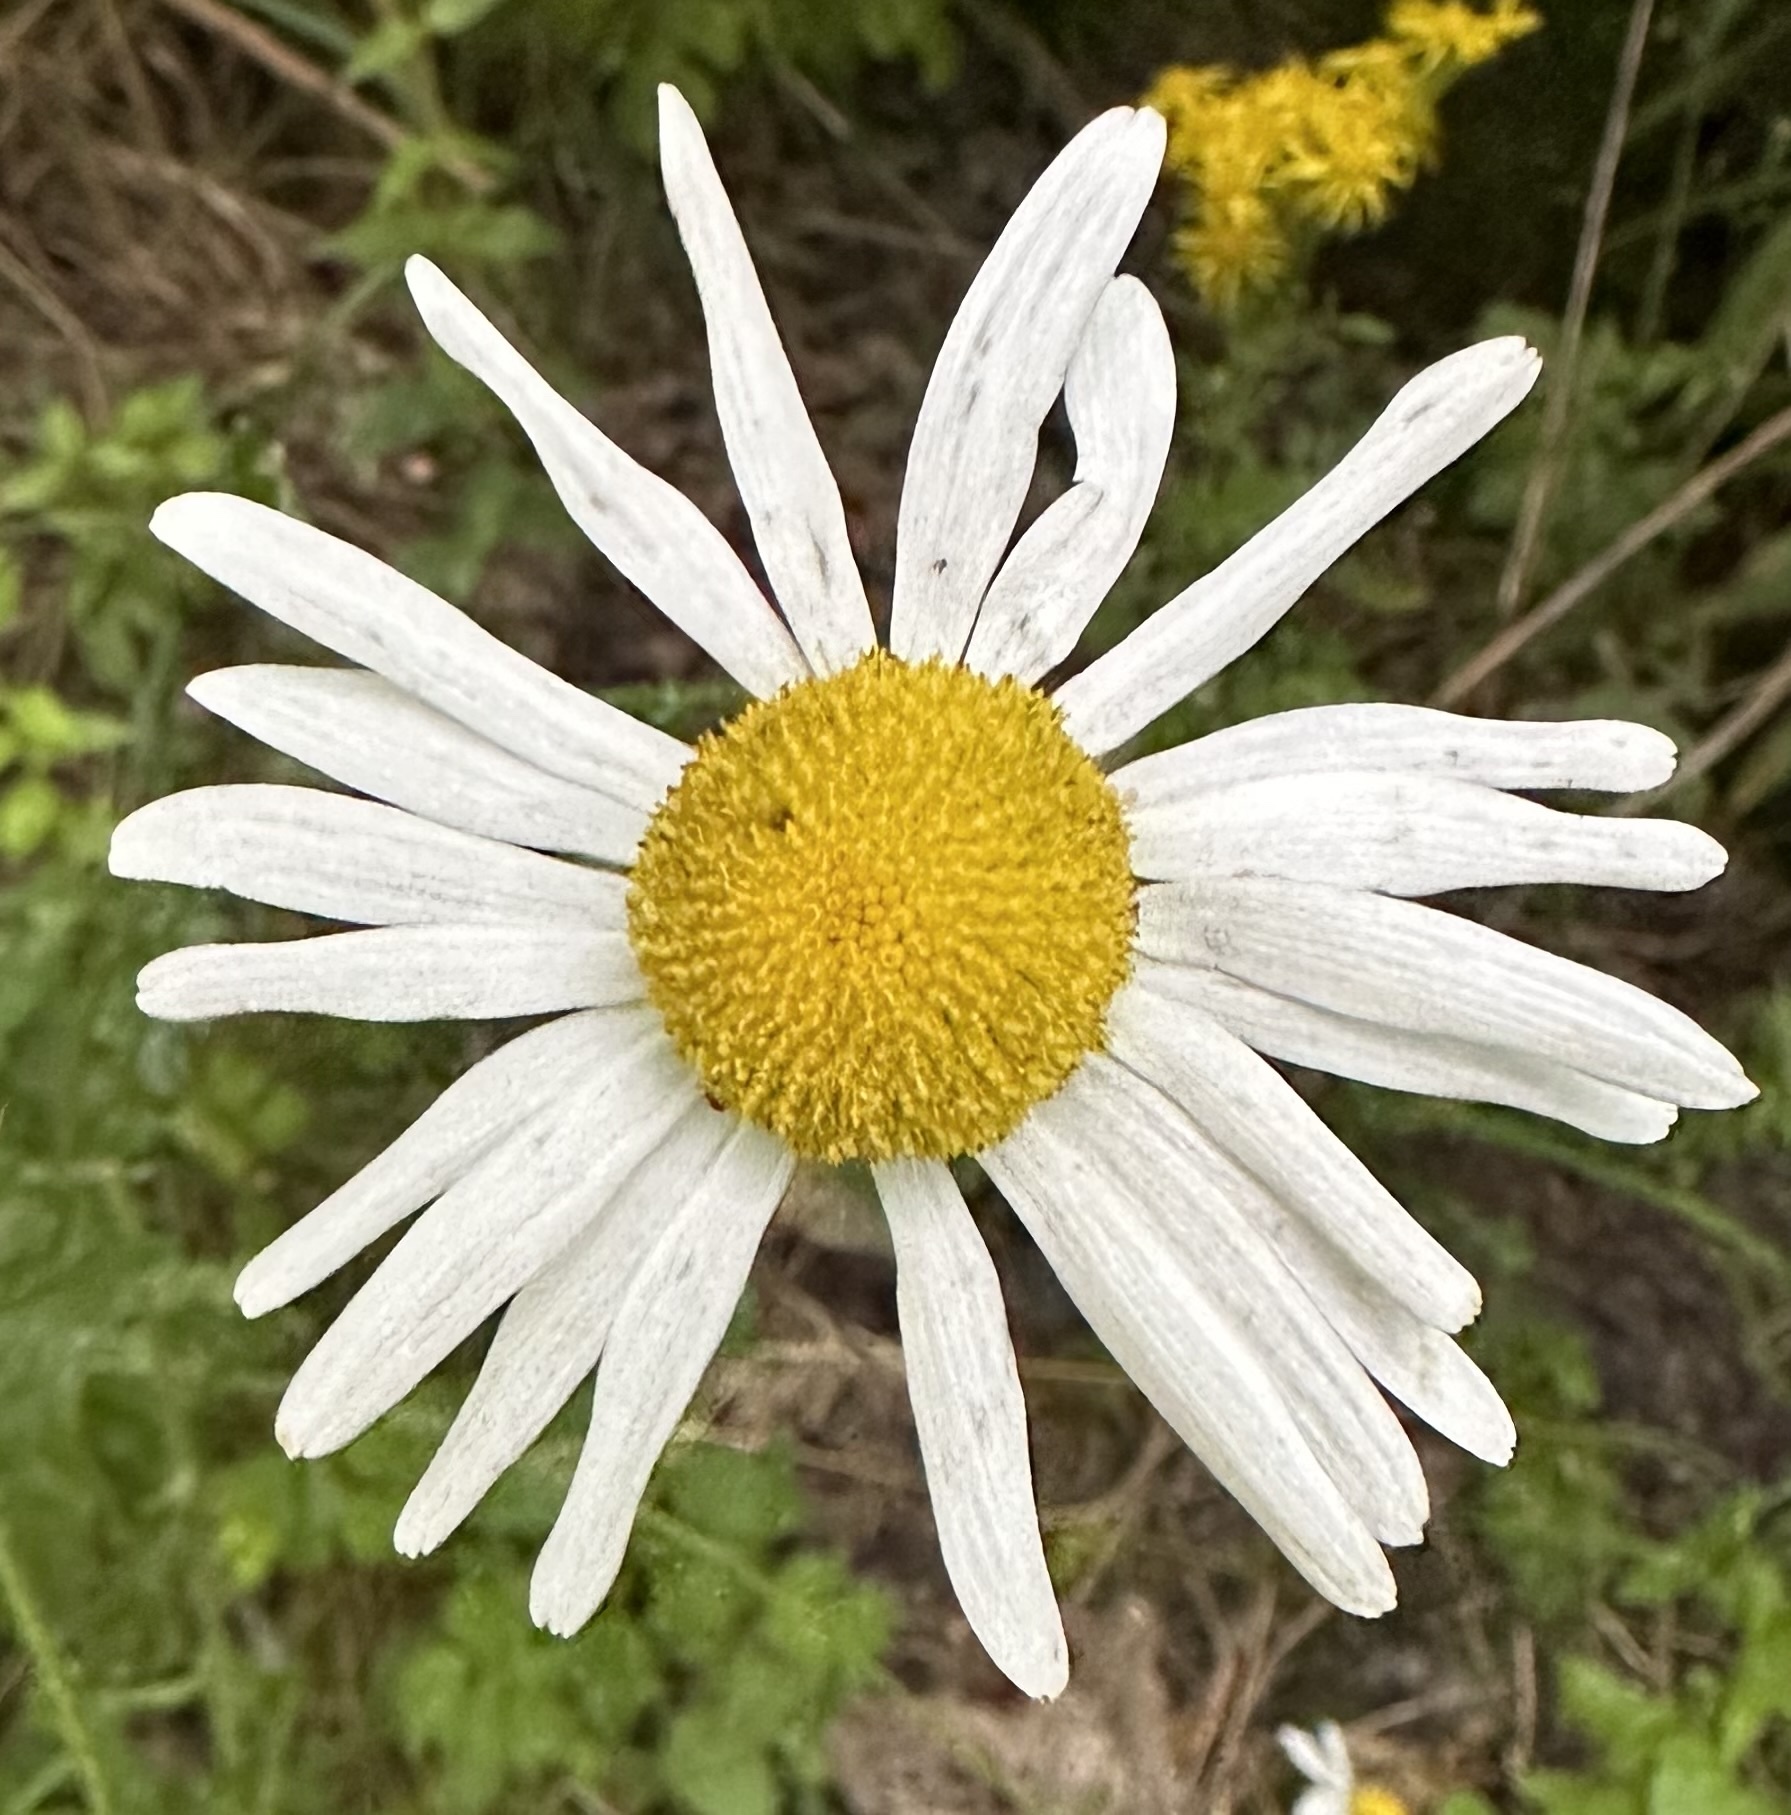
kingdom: Plantae
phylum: Tracheophyta
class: Magnoliopsida
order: Asterales
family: Asteraceae
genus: Leucanthemum
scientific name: Leucanthemum vulgare
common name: Oxeye daisy
